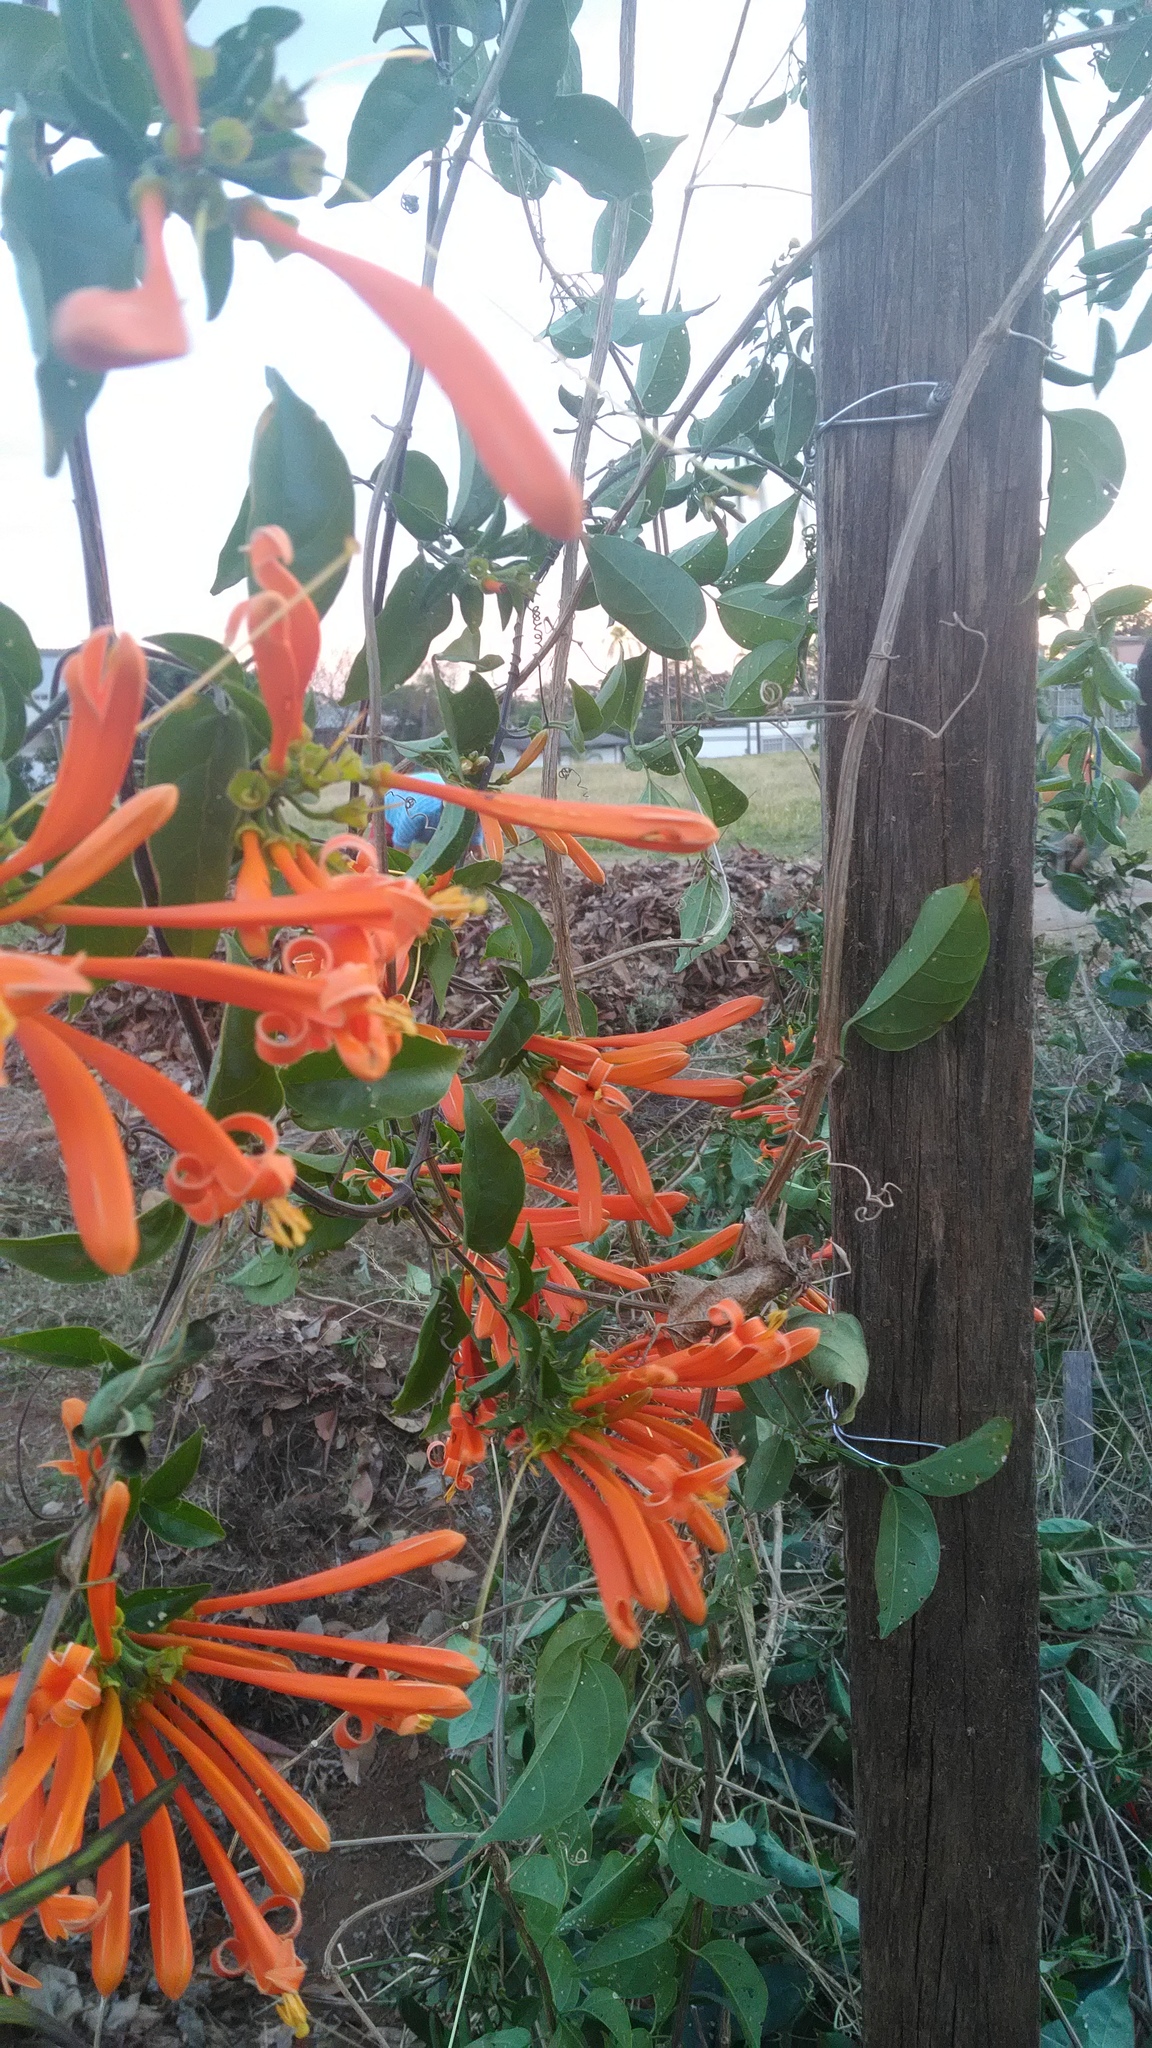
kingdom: Plantae
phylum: Tracheophyta
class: Magnoliopsida
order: Lamiales
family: Bignoniaceae
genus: Pyrostegia
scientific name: Pyrostegia venusta
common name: Flamevine
